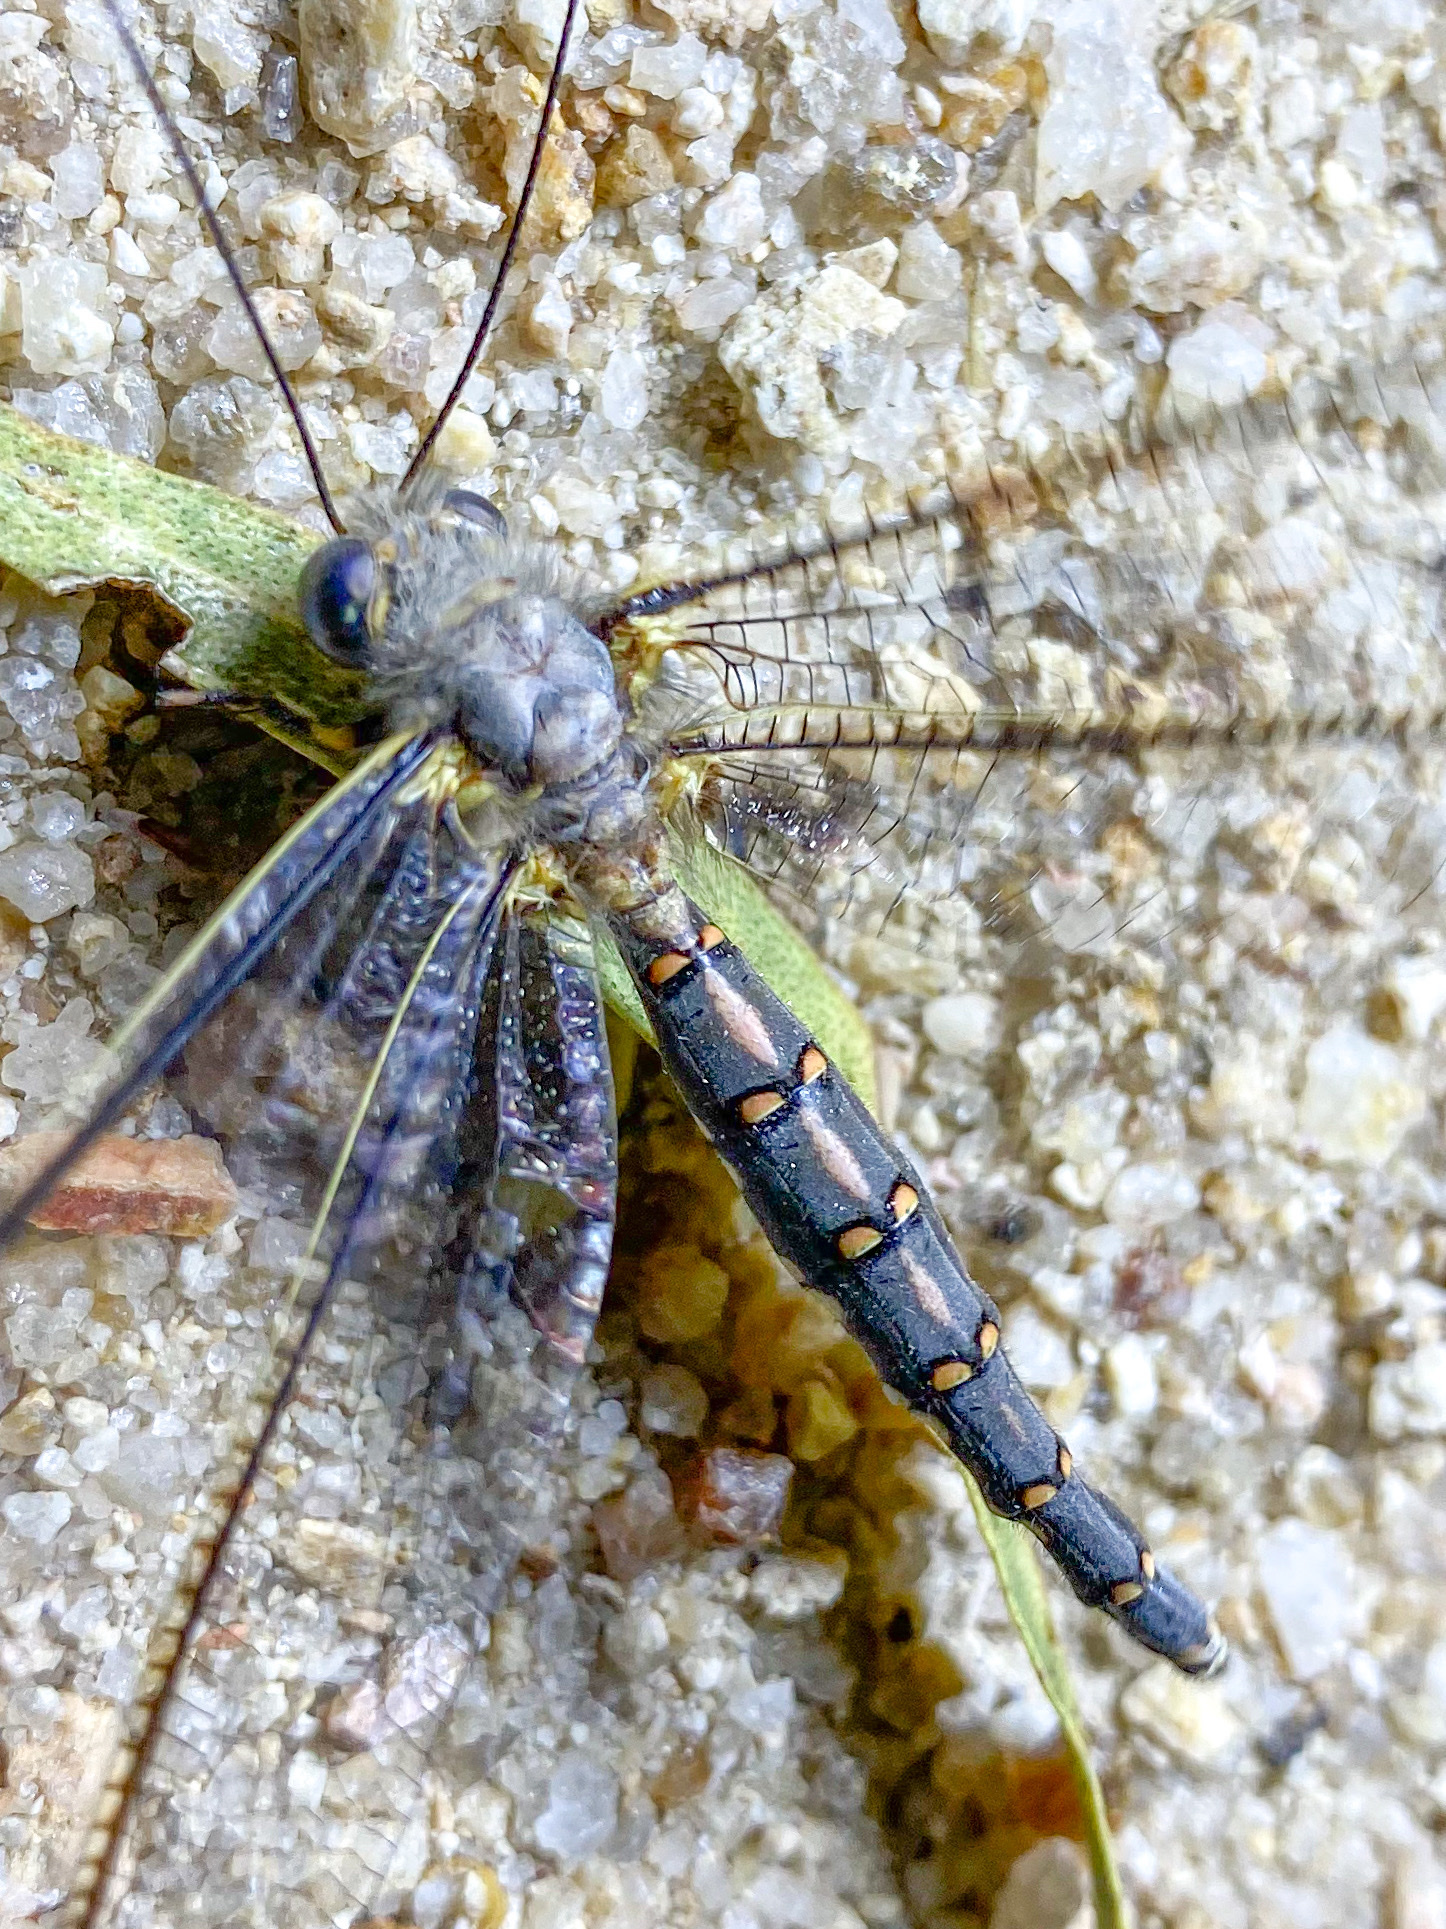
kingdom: Animalia
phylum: Arthropoda
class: Insecta
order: Neuroptera
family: Ascalaphidae
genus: Megacmonotus
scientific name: Megacmonotus magnus
